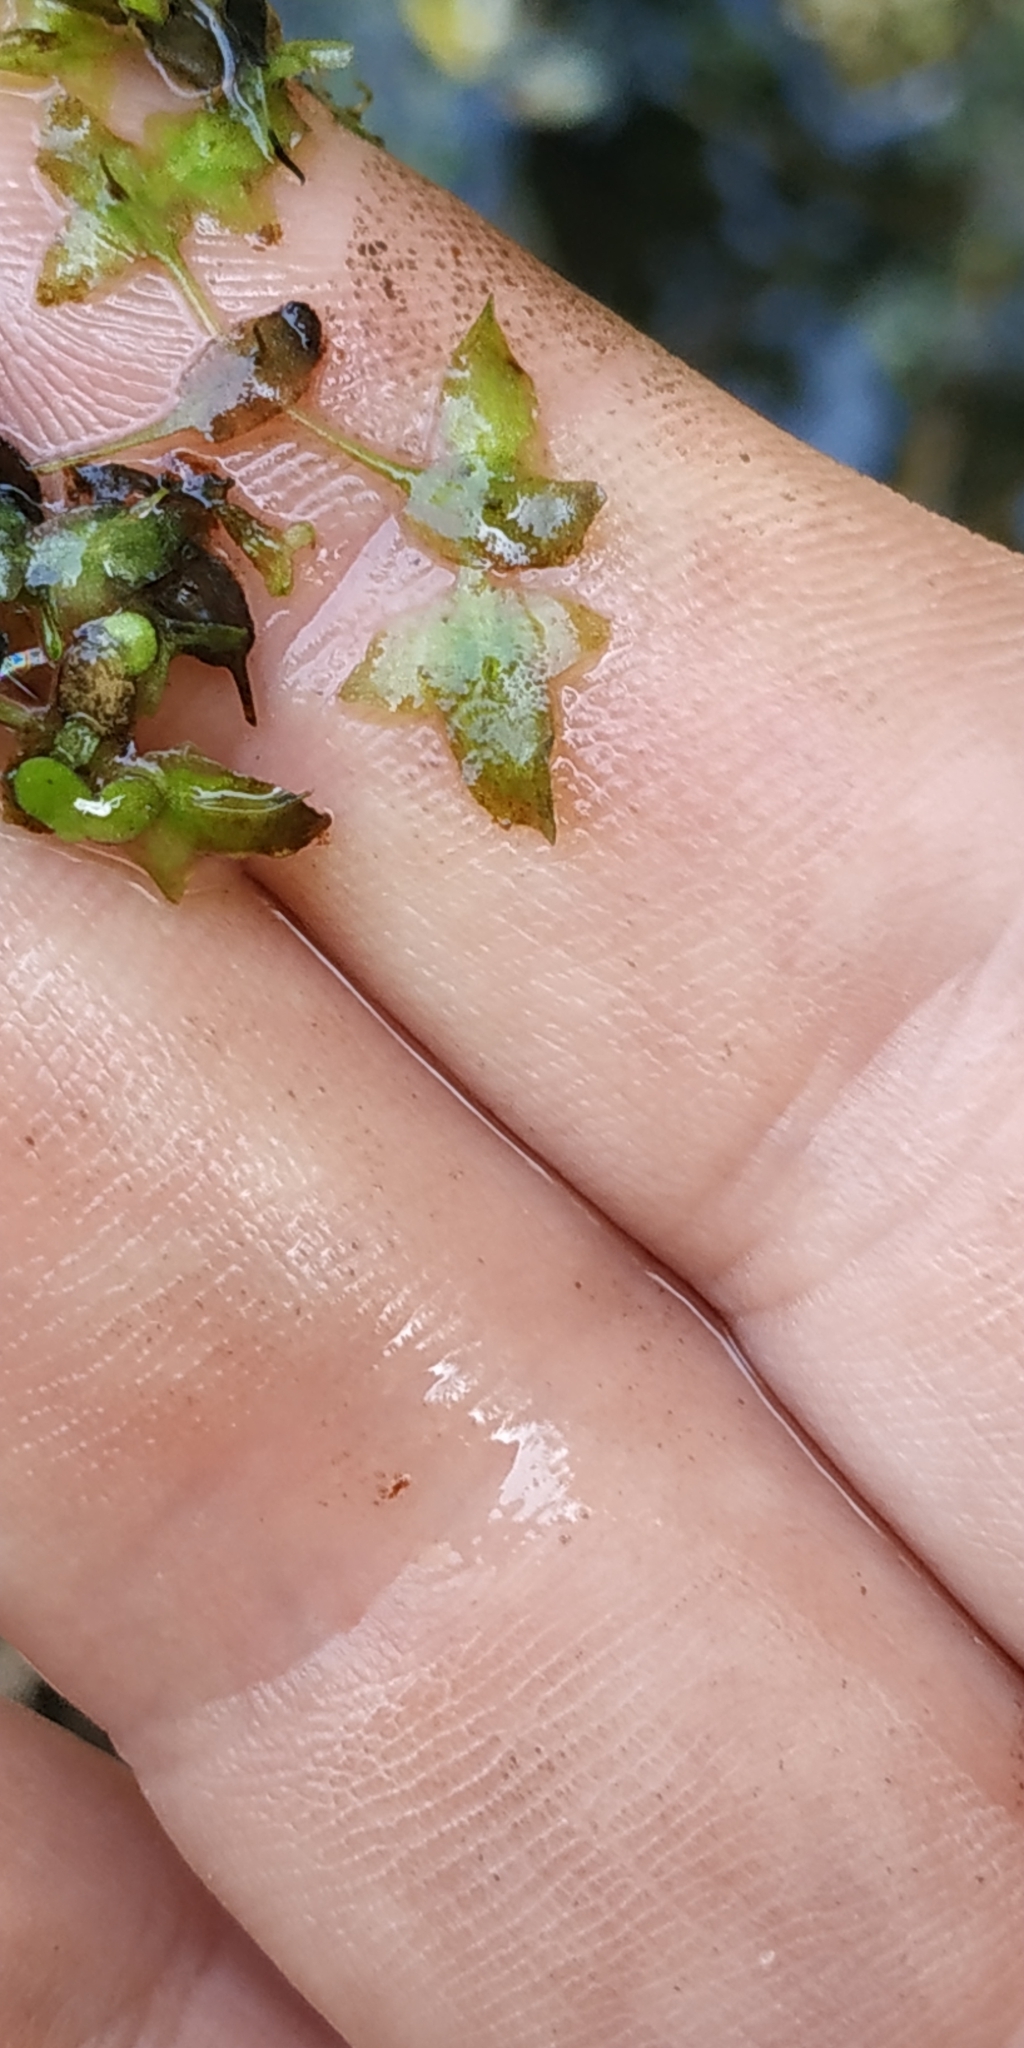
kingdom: Plantae
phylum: Tracheophyta
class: Liliopsida
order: Alismatales
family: Araceae
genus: Lemna
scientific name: Lemna trisulca
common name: Ivy-leaved duckweed
